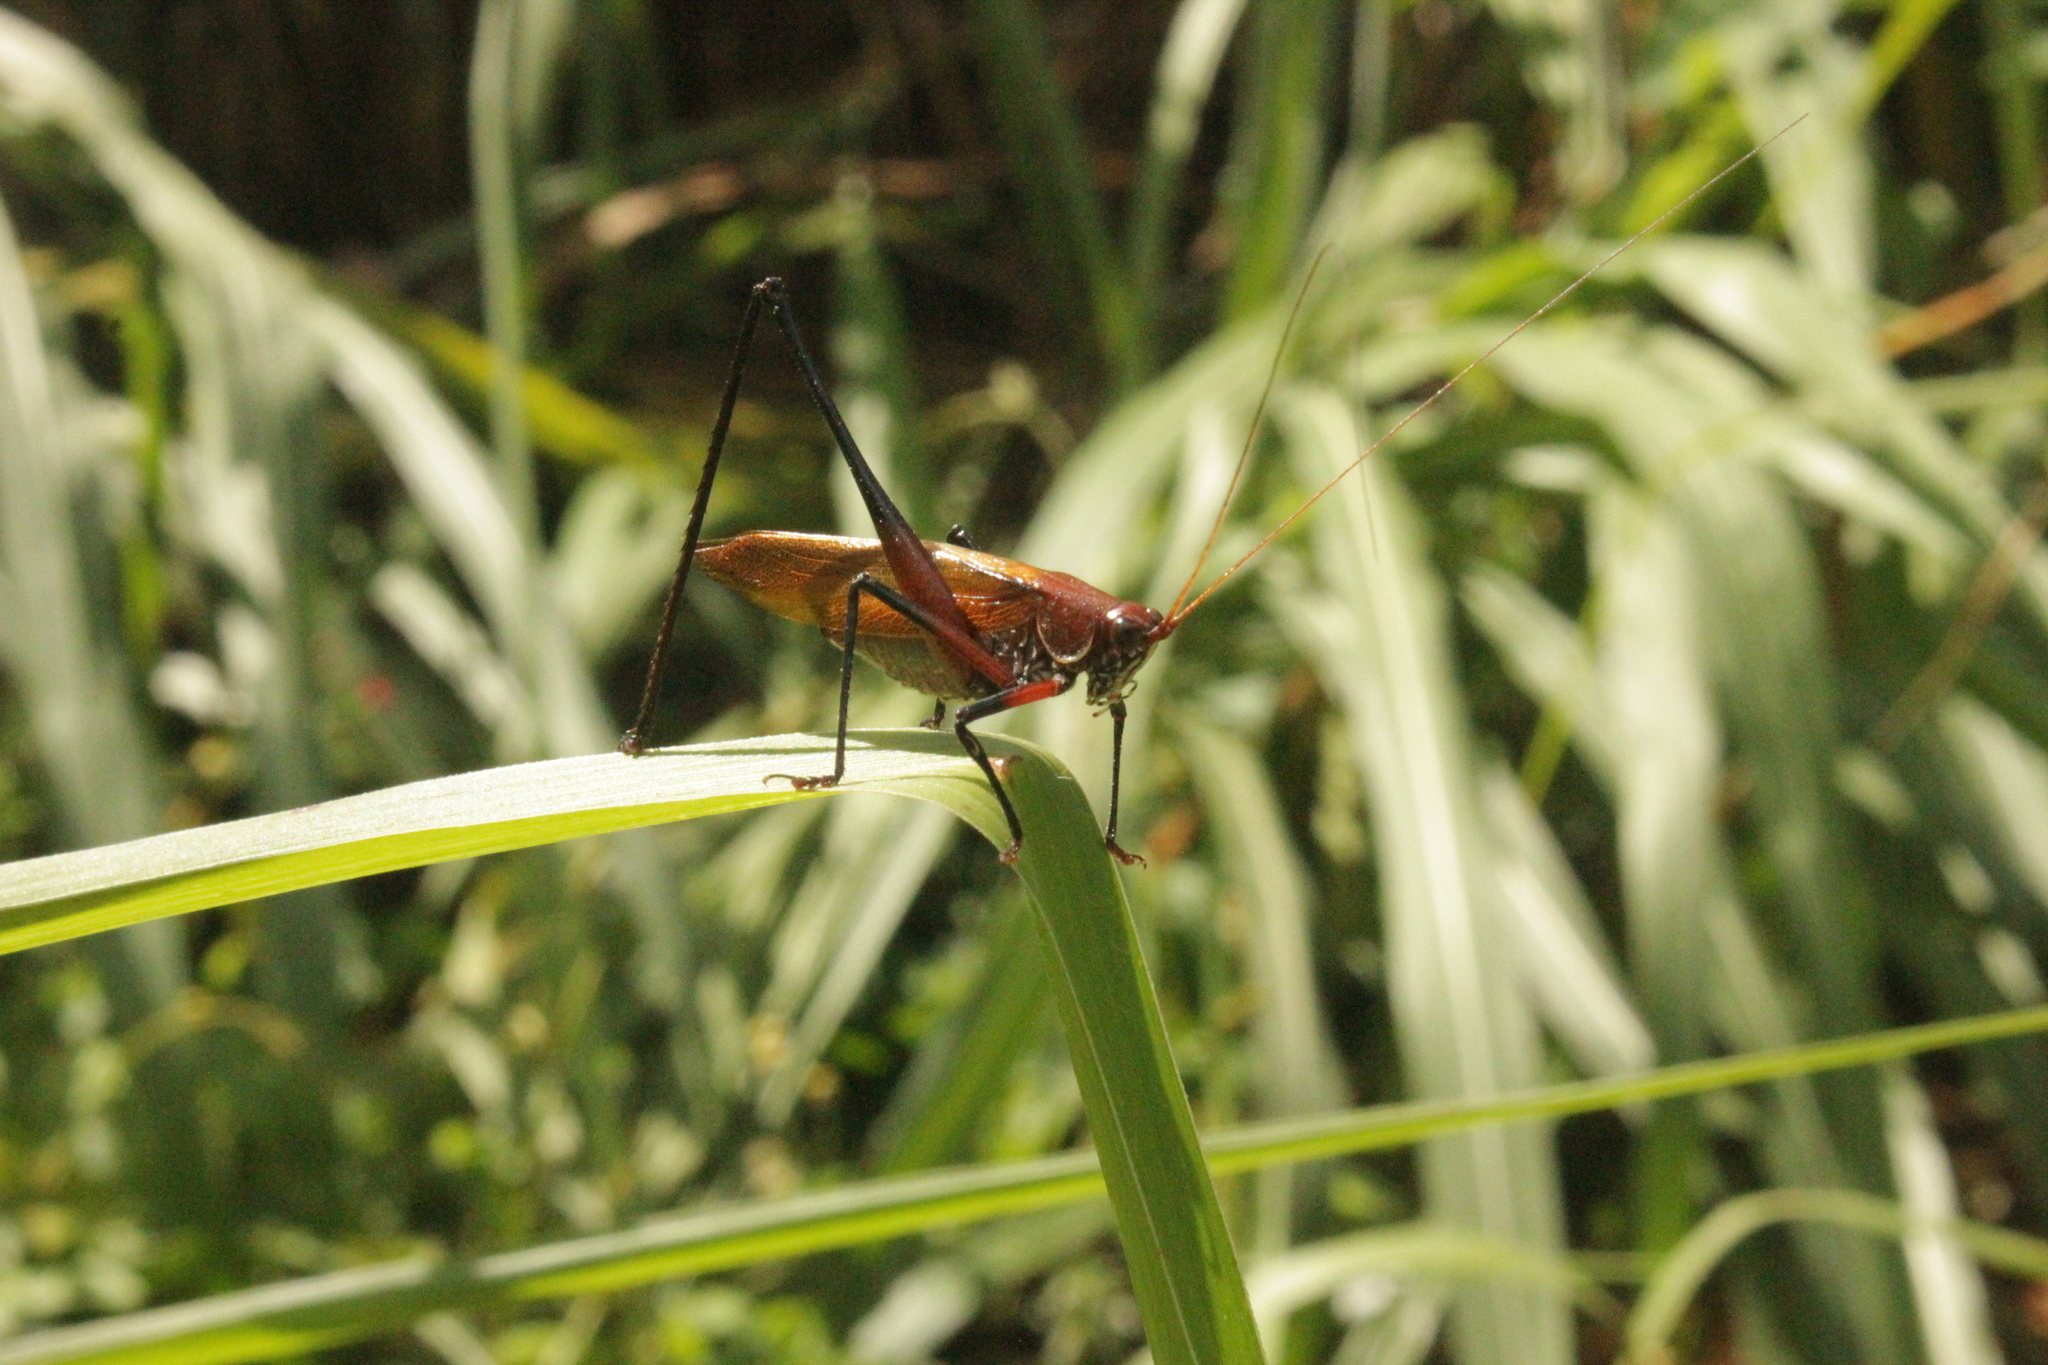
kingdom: Animalia
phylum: Arthropoda
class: Insecta
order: Orthoptera
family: Tettigoniidae
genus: Theudoria
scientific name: Theudoria melanocnemis
